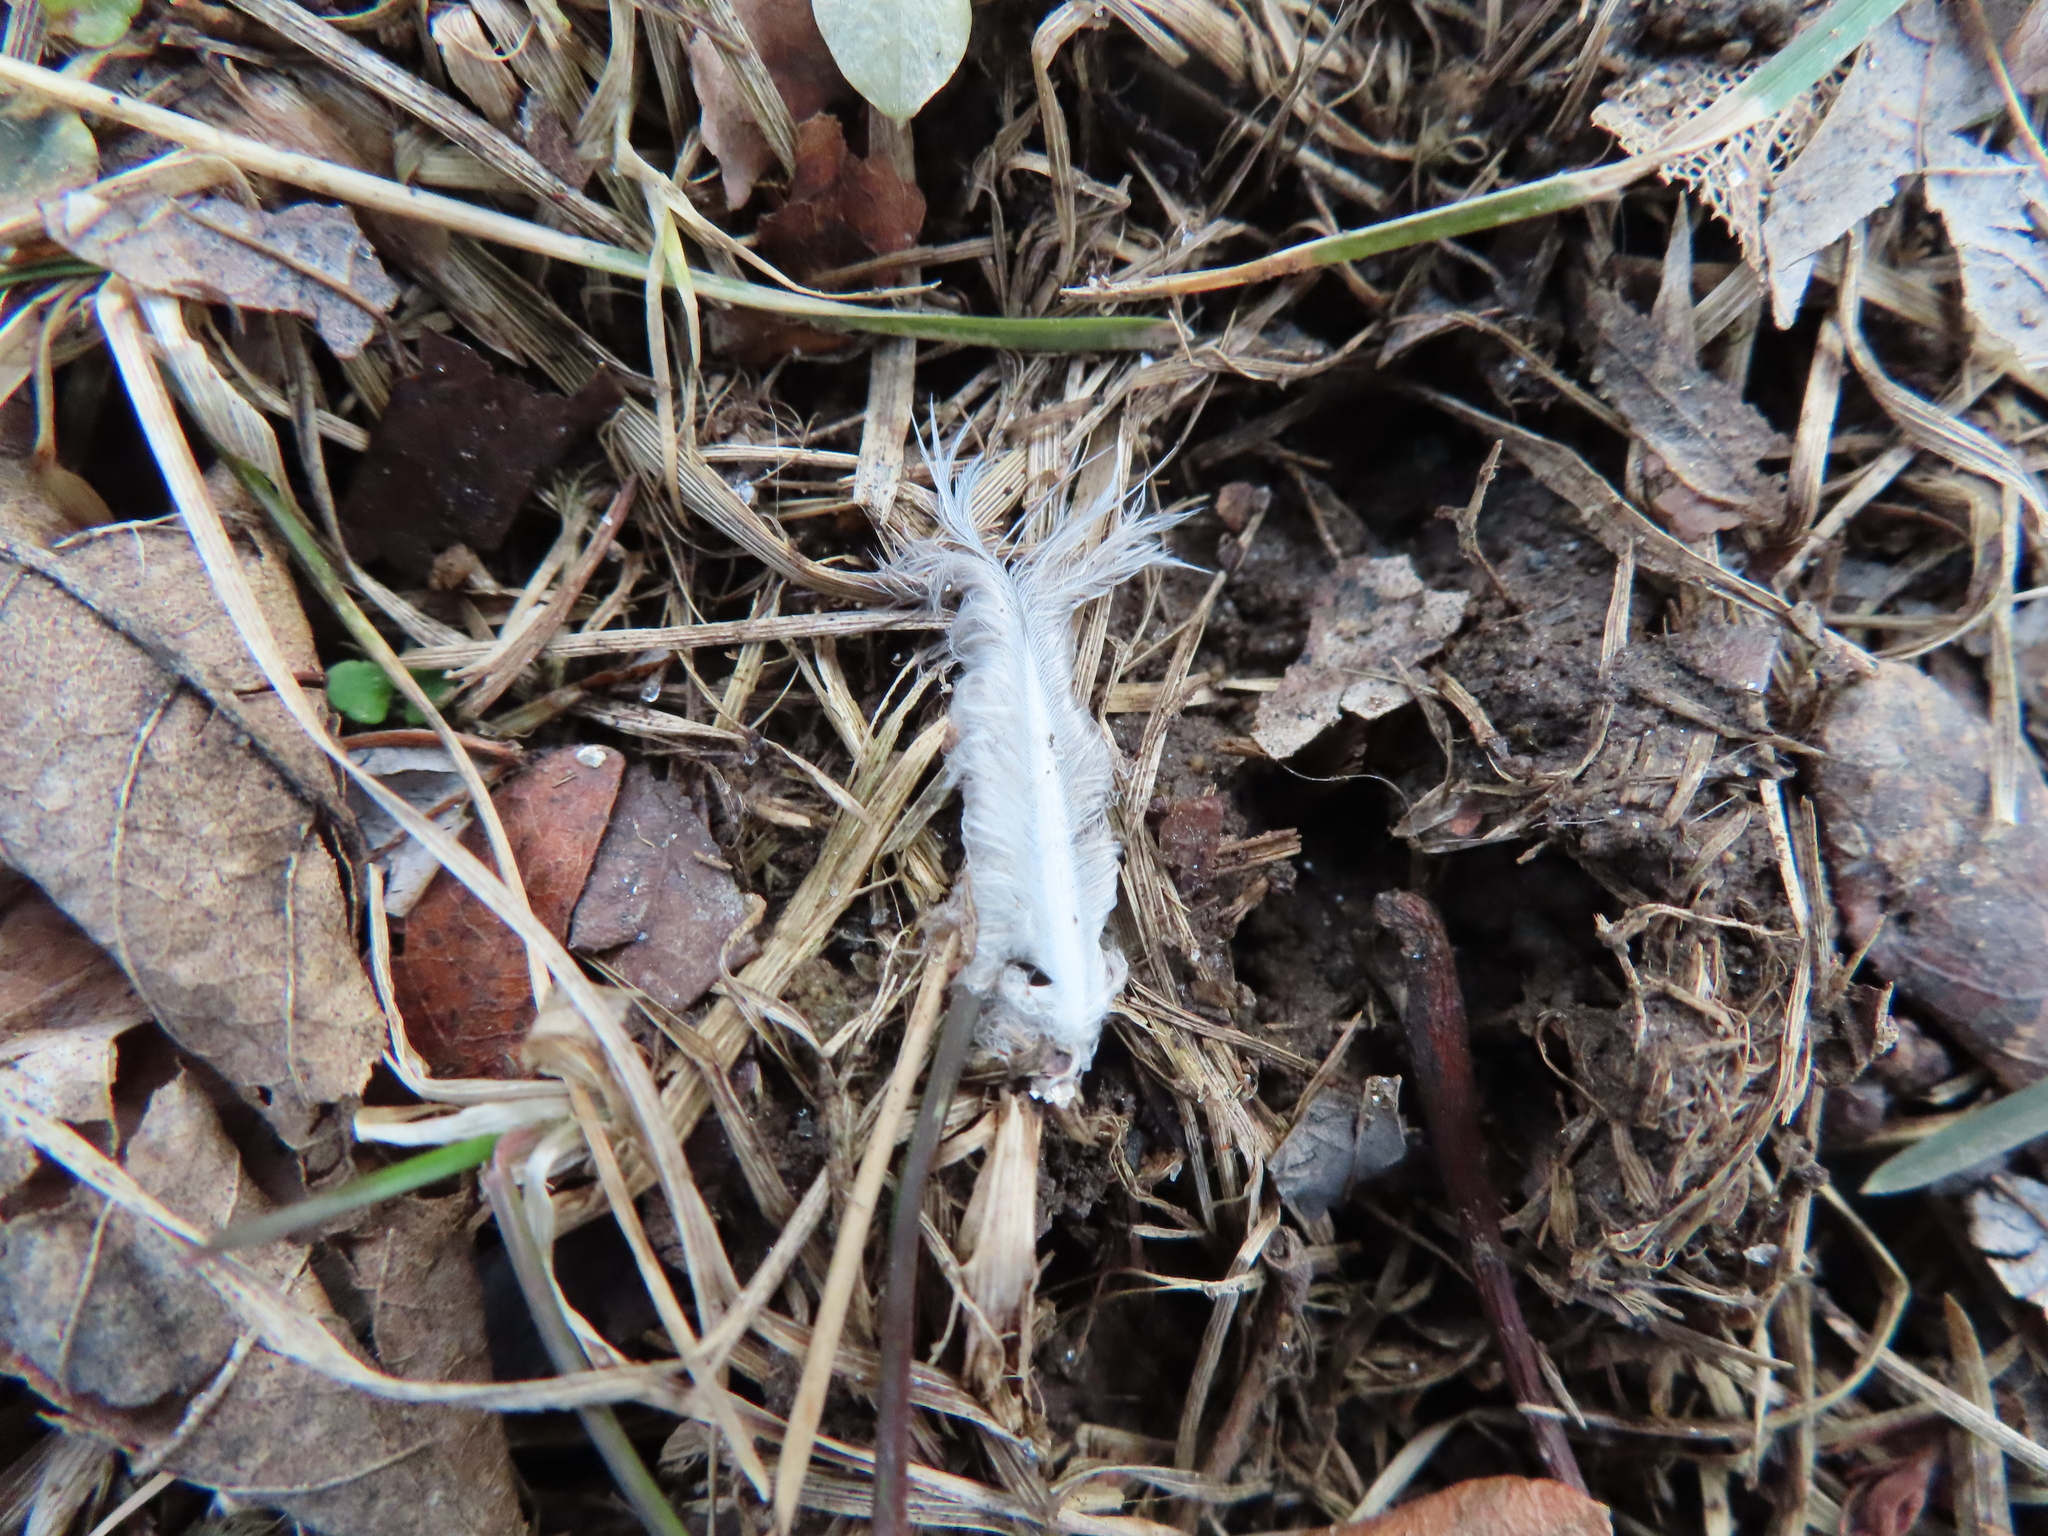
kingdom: Animalia
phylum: Chordata
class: Aves
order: Columbiformes
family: Columbidae
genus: Zenaida
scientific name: Zenaida macroura
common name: Mourning dove
